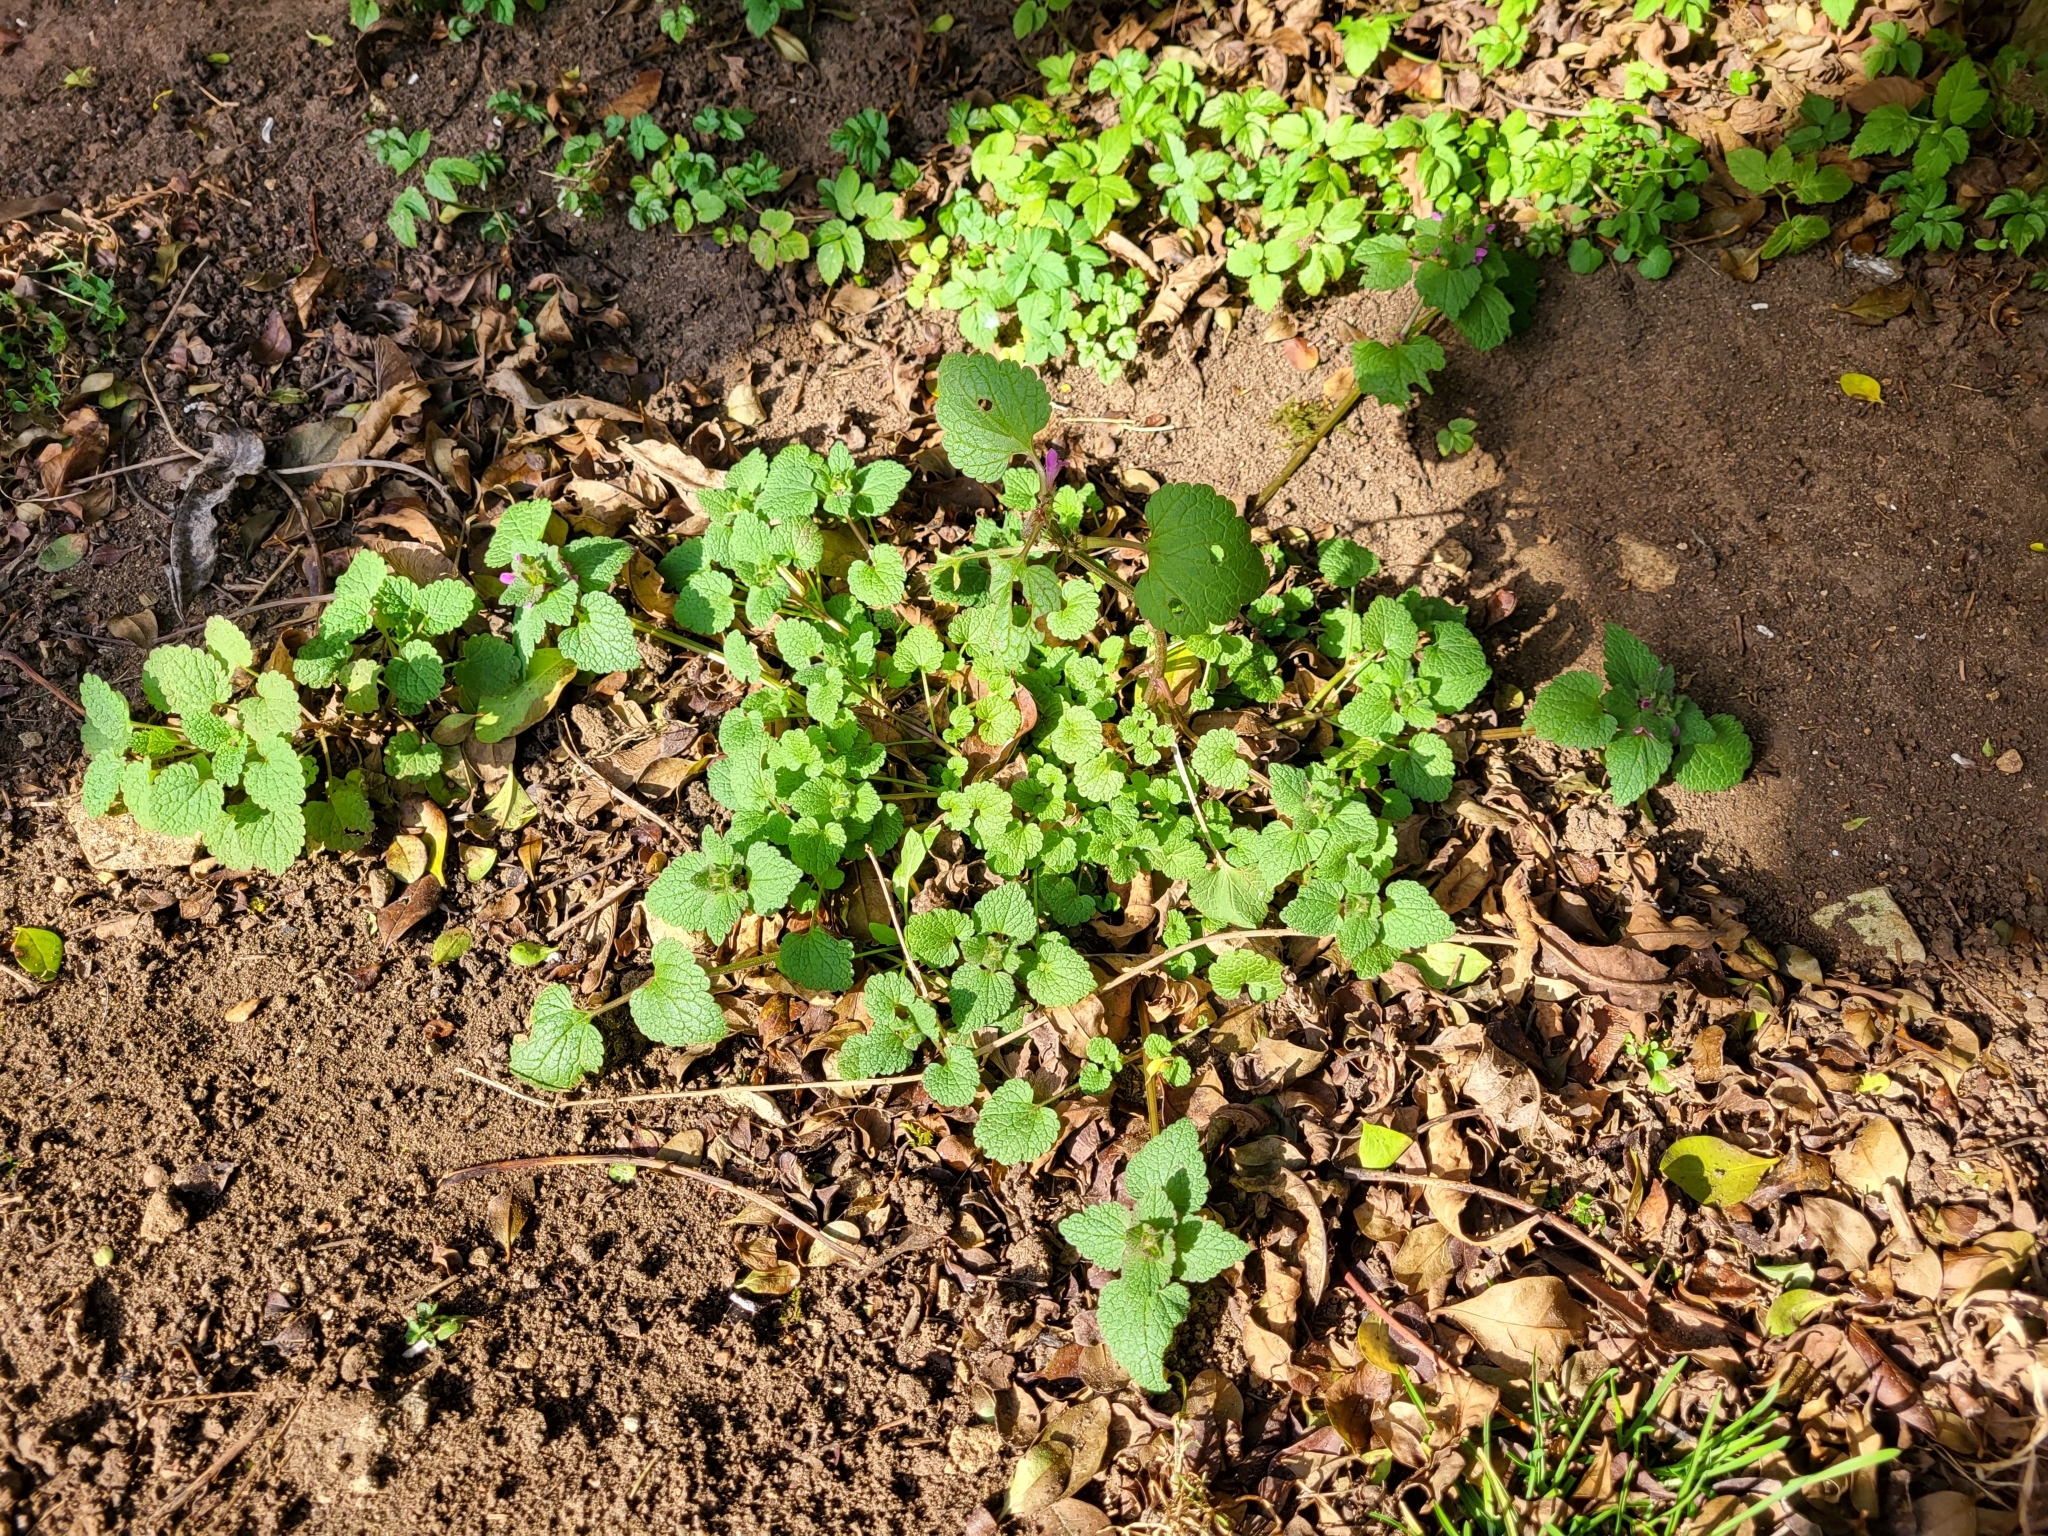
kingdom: Plantae
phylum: Tracheophyta
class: Magnoliopsida
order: Lamiales
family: Lamiaceae
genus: Lamium
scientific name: Lamium purpureum
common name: Red dead-nettle
